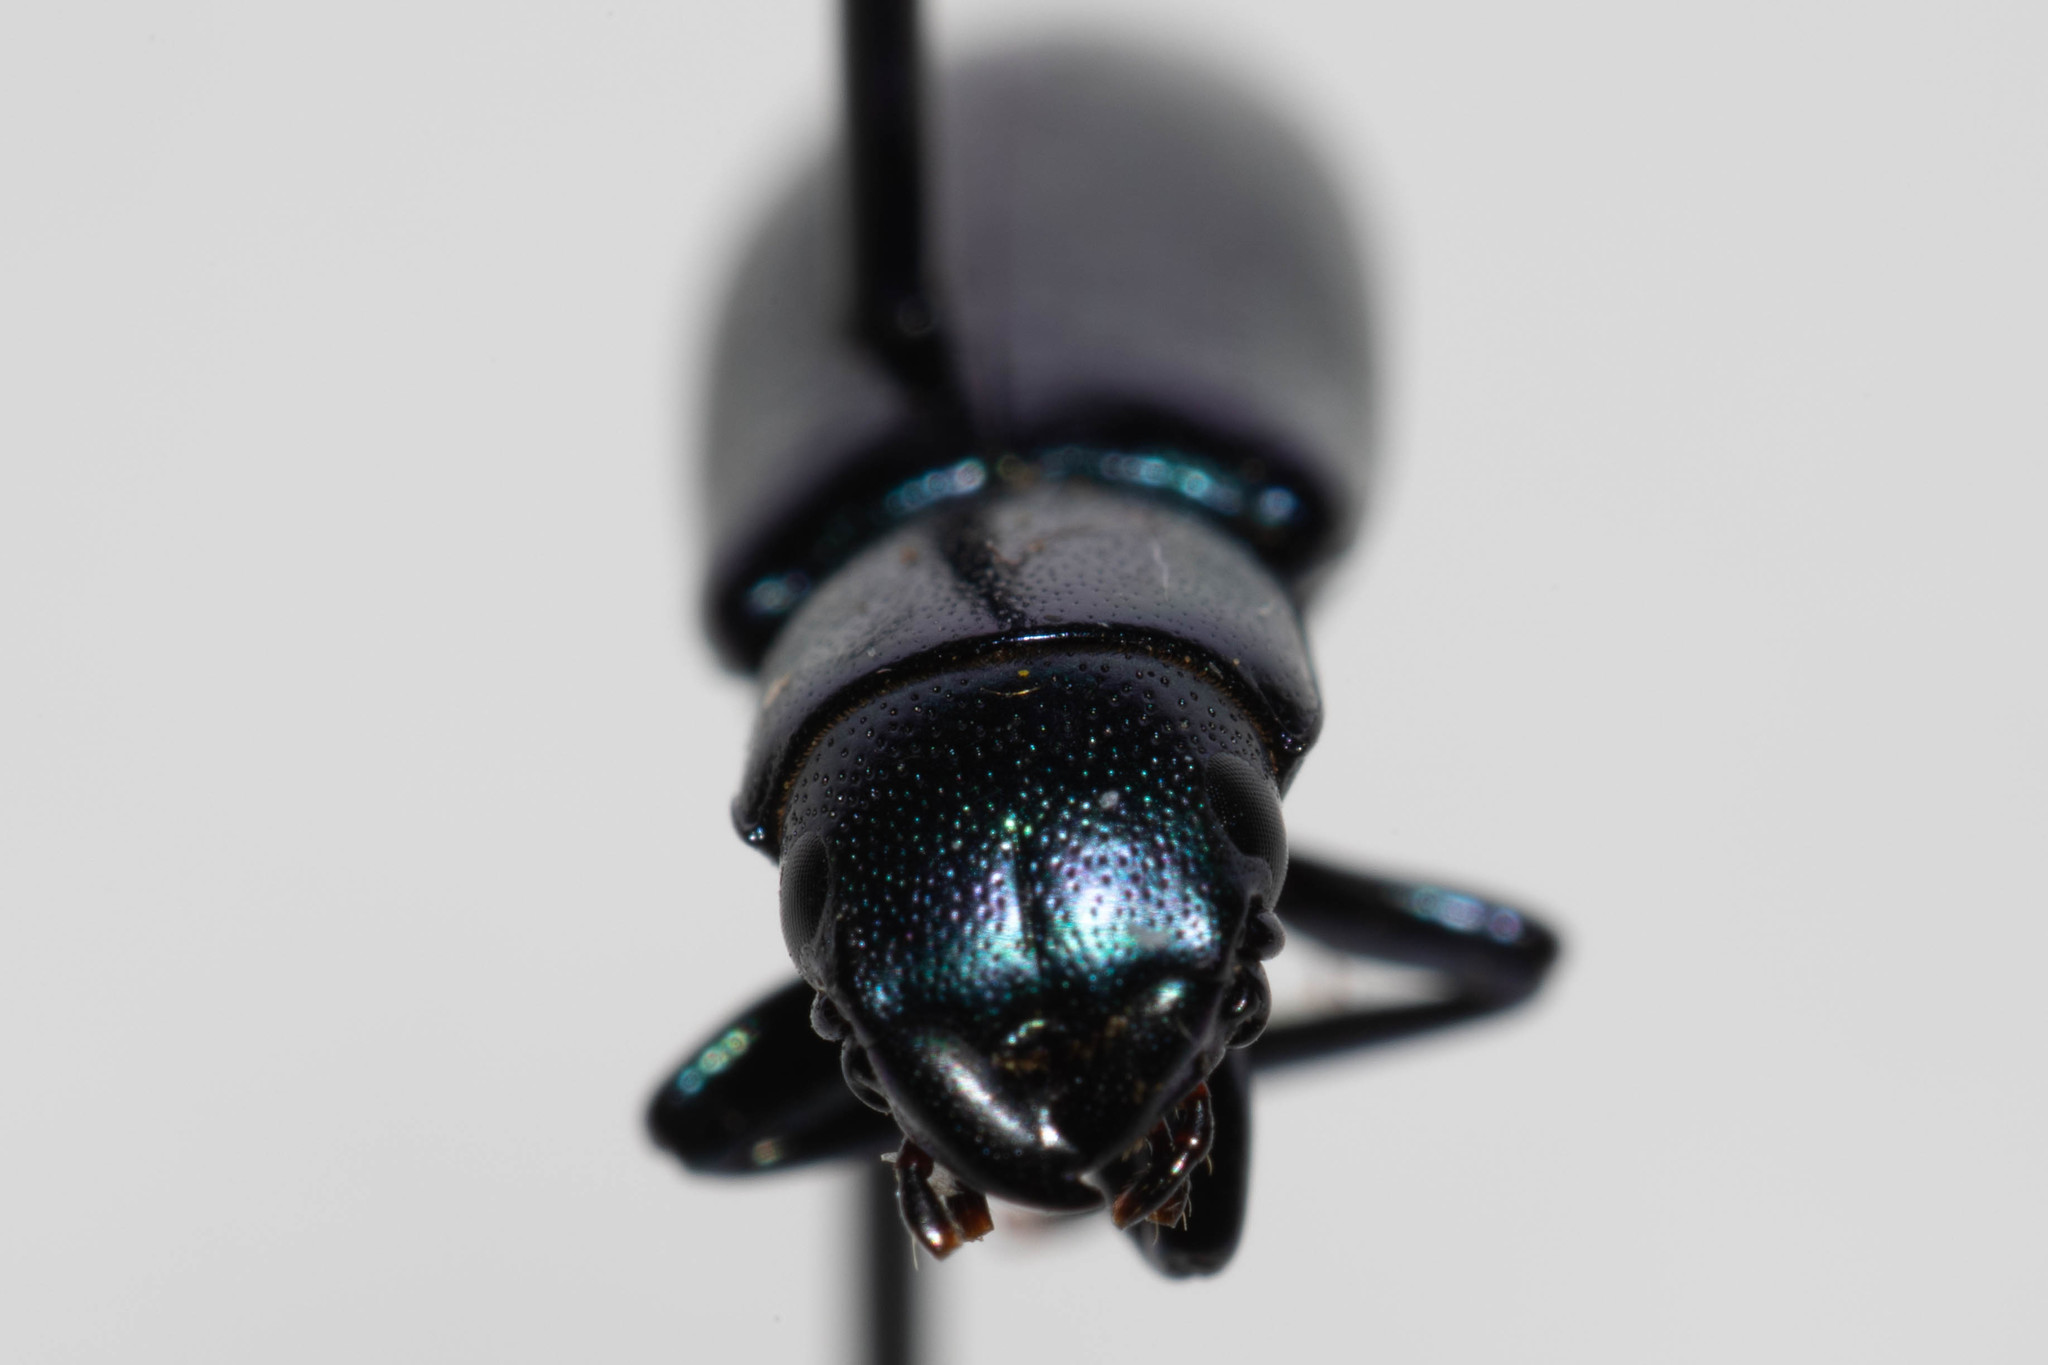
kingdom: Animalia
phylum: Arthropoda
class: Insecta
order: Coleoptera
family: Trogossitidae
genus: Temnoscheila
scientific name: Temnoscheila chlorodia
